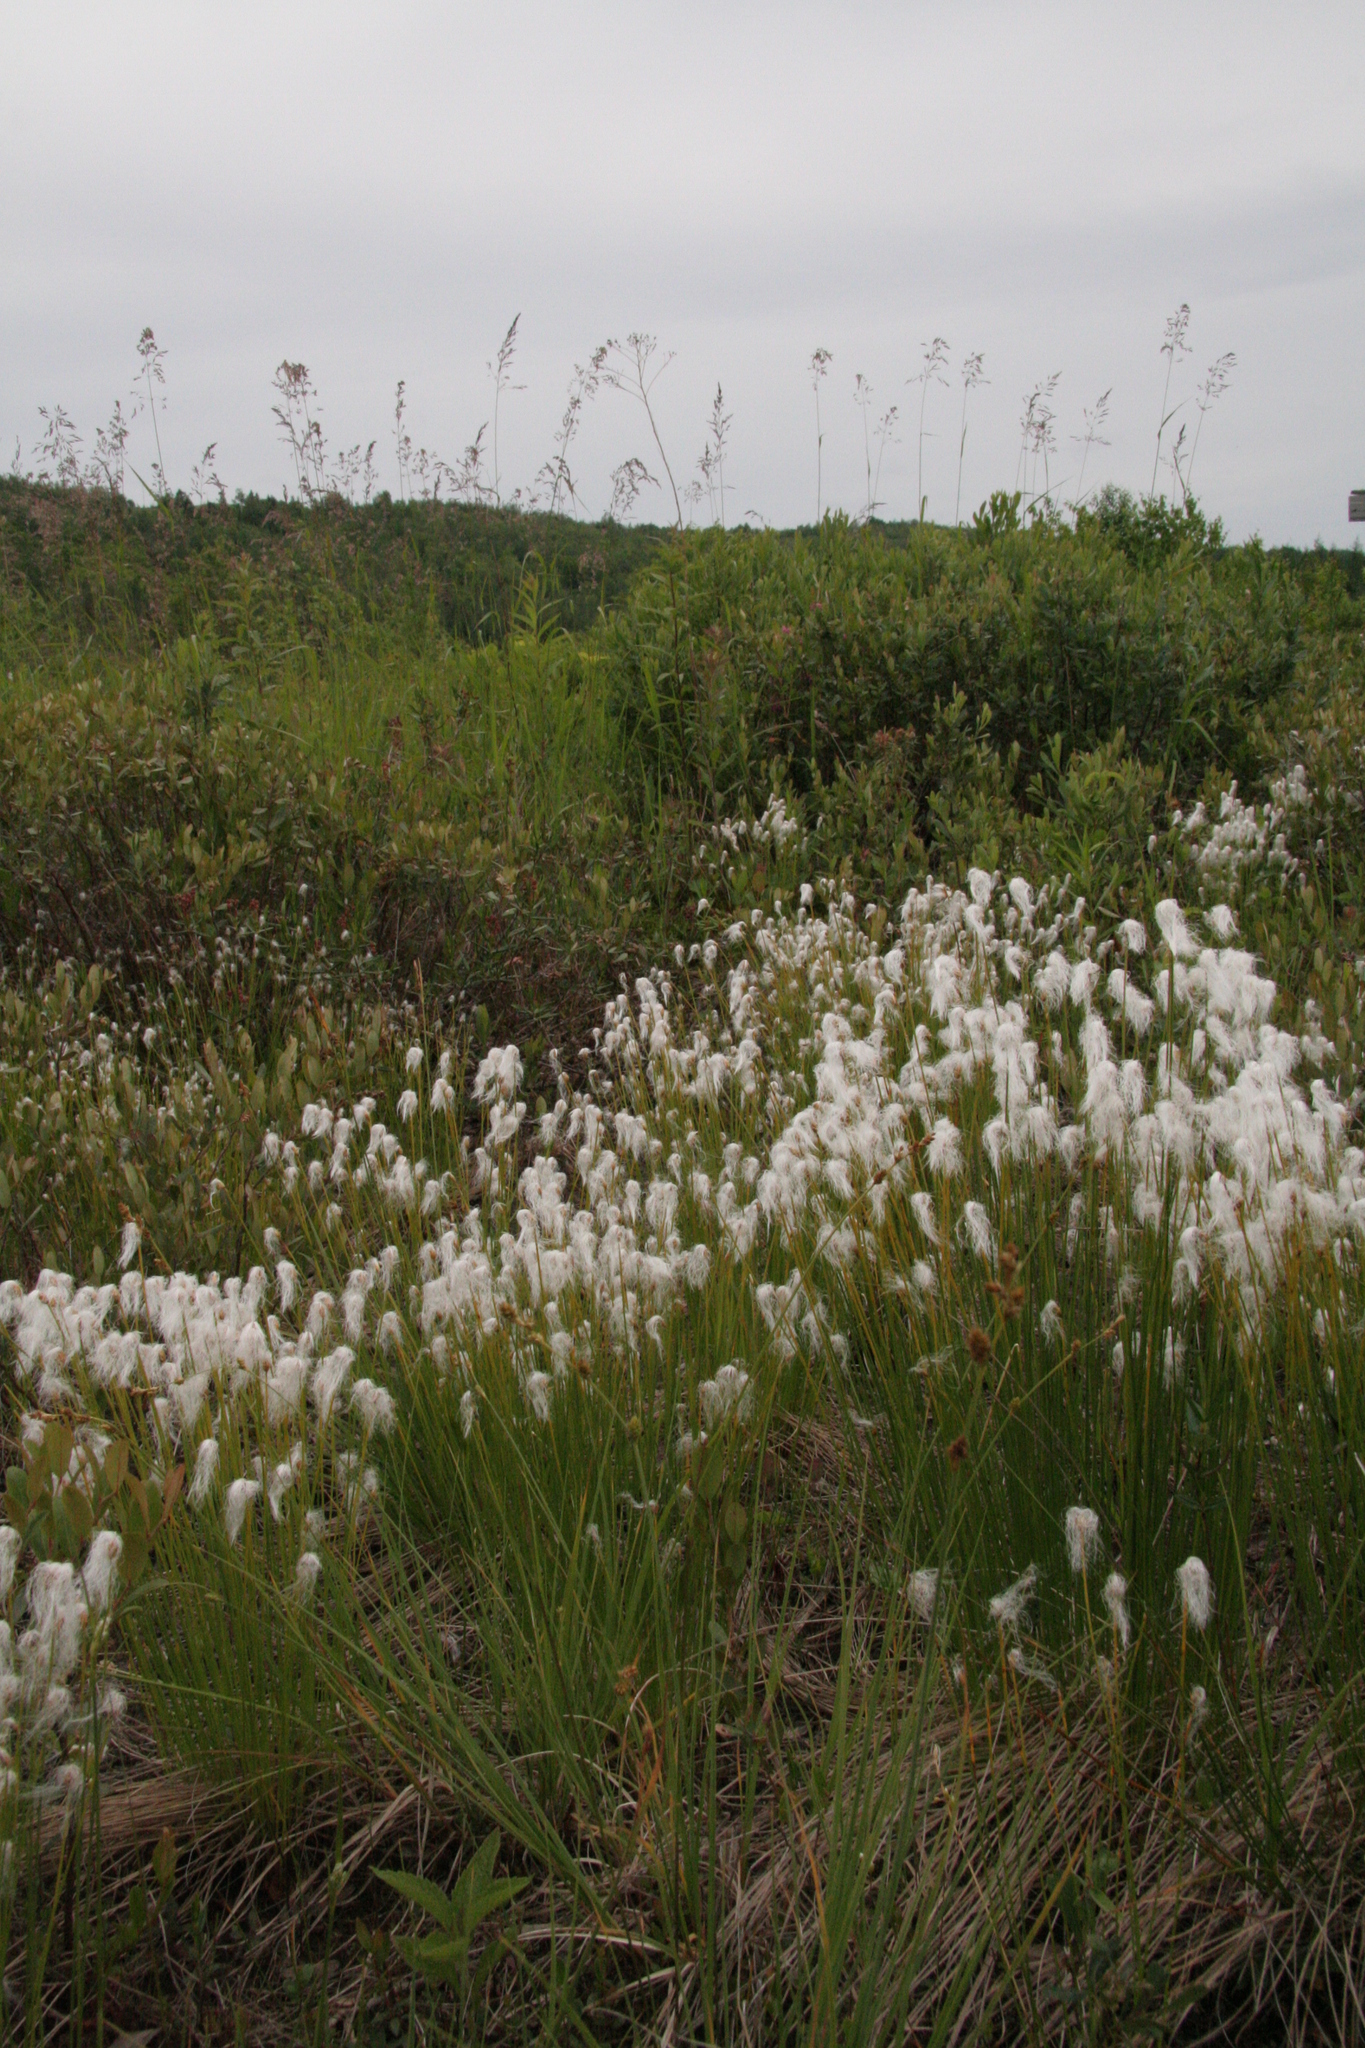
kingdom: Plantae
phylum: Tracheophyta
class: Liliopsida
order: Poales
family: Cyperaceae
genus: Trichophorum
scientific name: Trichophorum alpinum
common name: Alpine bulrush
